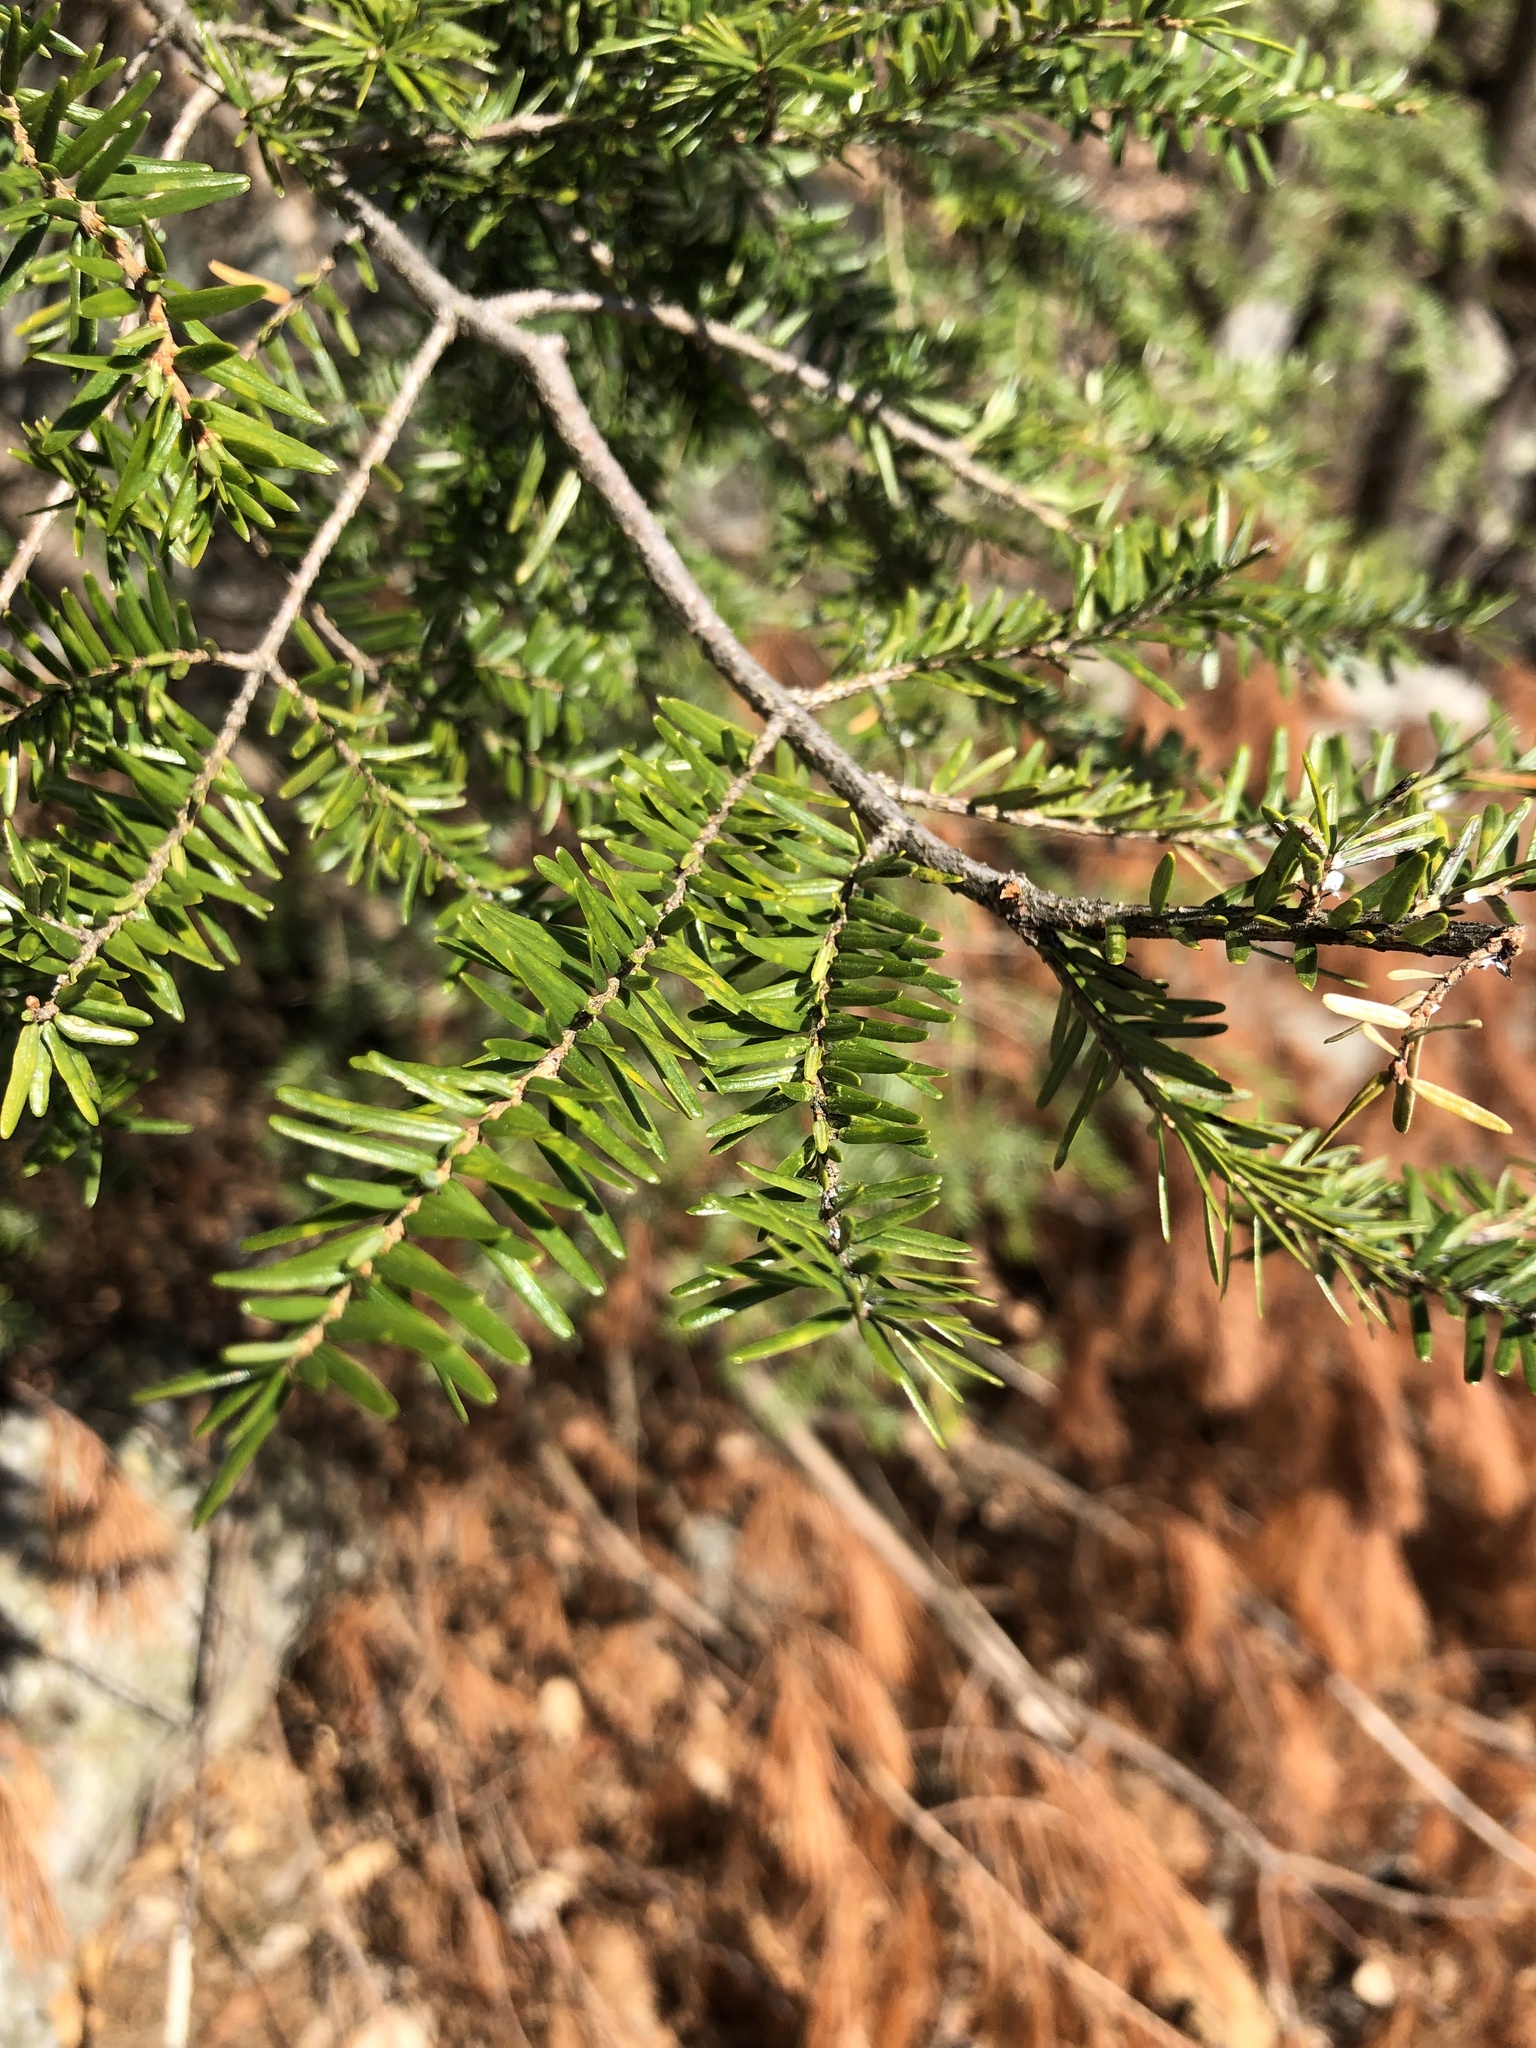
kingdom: Plantae
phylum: Tracheophyta
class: Pinopsida
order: Pinales
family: Pinaceae
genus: Tsuga
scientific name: Tsuga canadensis
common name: Eastern hemlock
